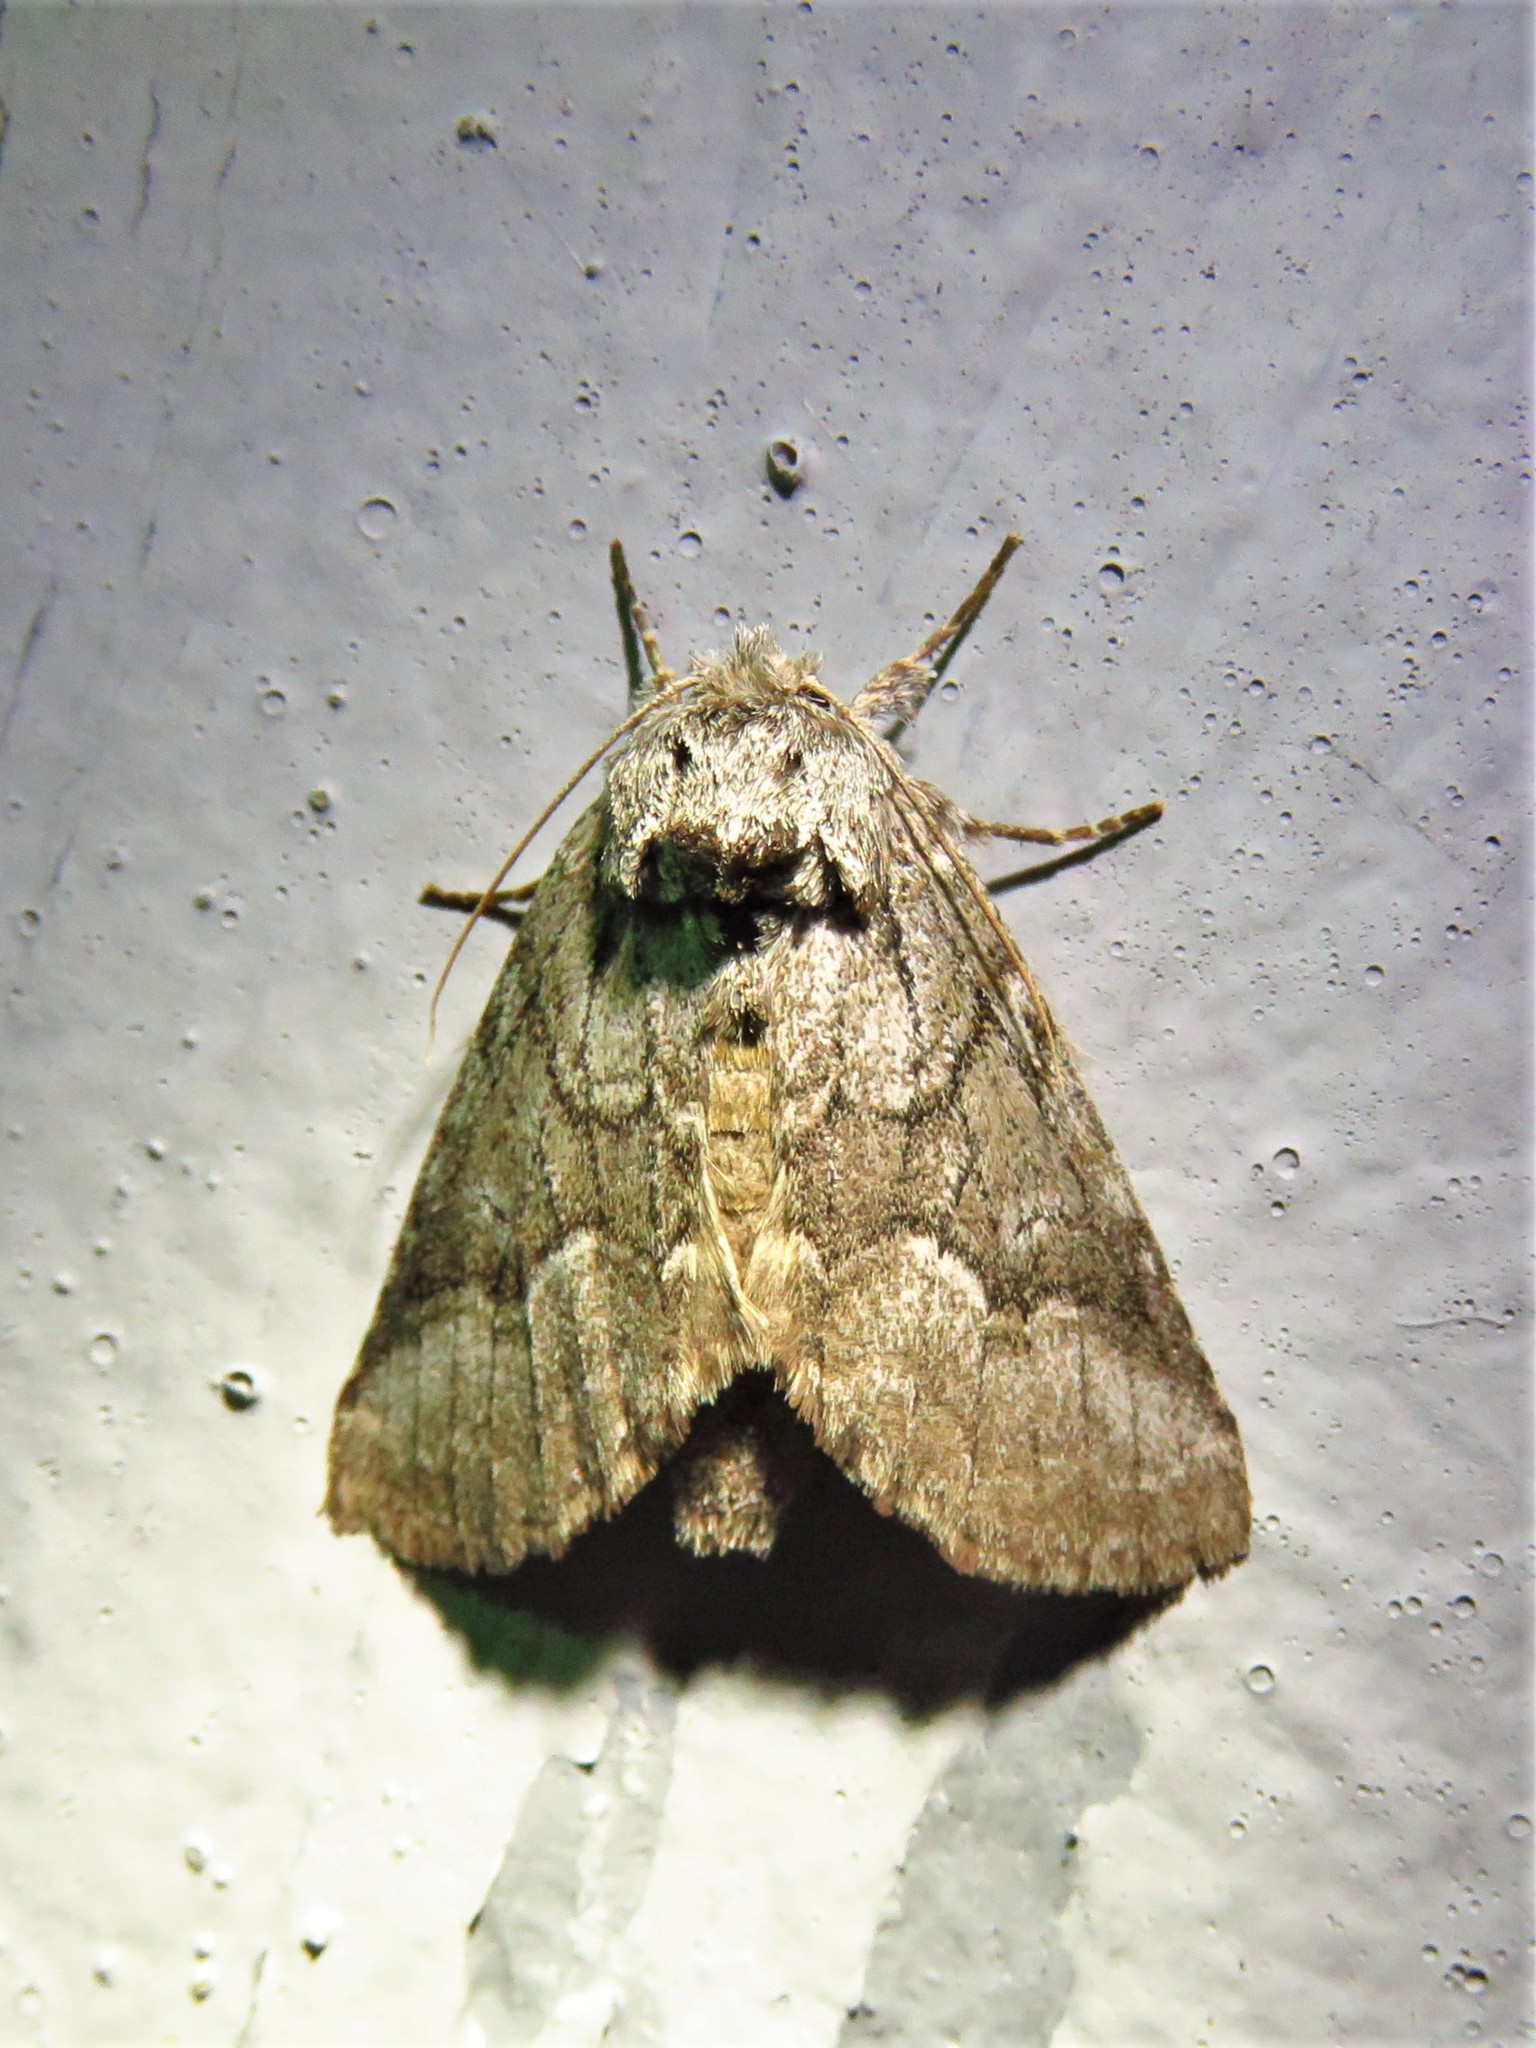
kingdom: Animalia
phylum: Arthropoda
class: Insecta
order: Lepidoptera
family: Notodontidae
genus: Lochmaeus
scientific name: Lochmaeus bilineata
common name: Double-lined prominent
